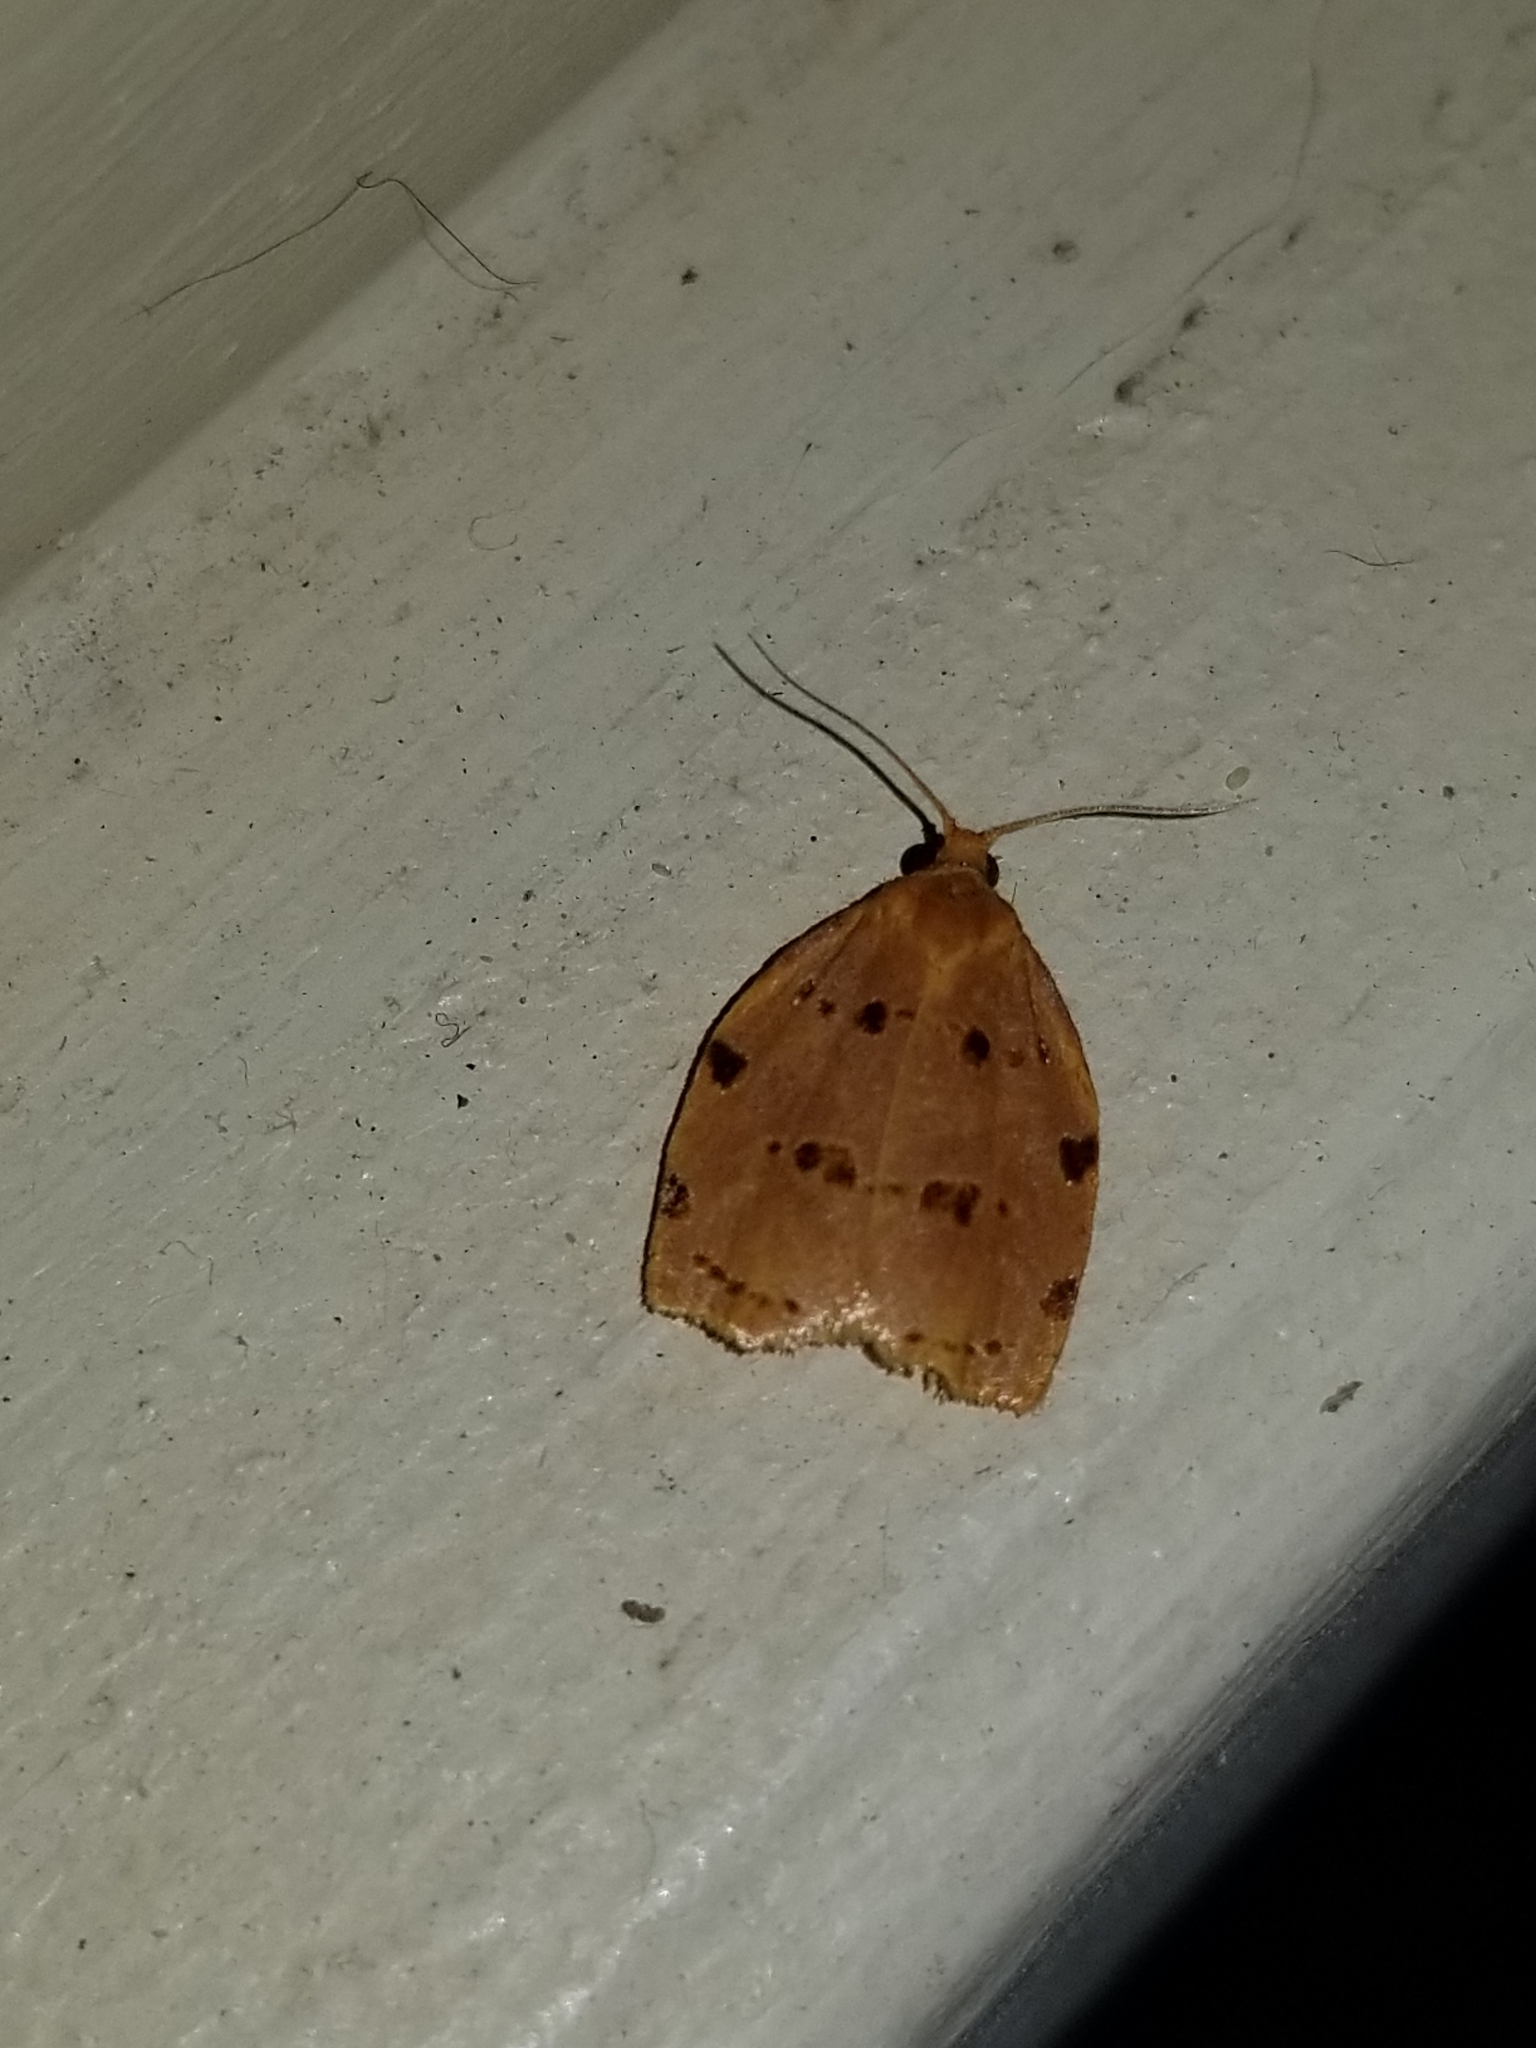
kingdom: Animalia
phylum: Arthropoda
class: Insecta
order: Lepidoptera
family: Tortricidae
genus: Archips
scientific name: Archips rileyana
